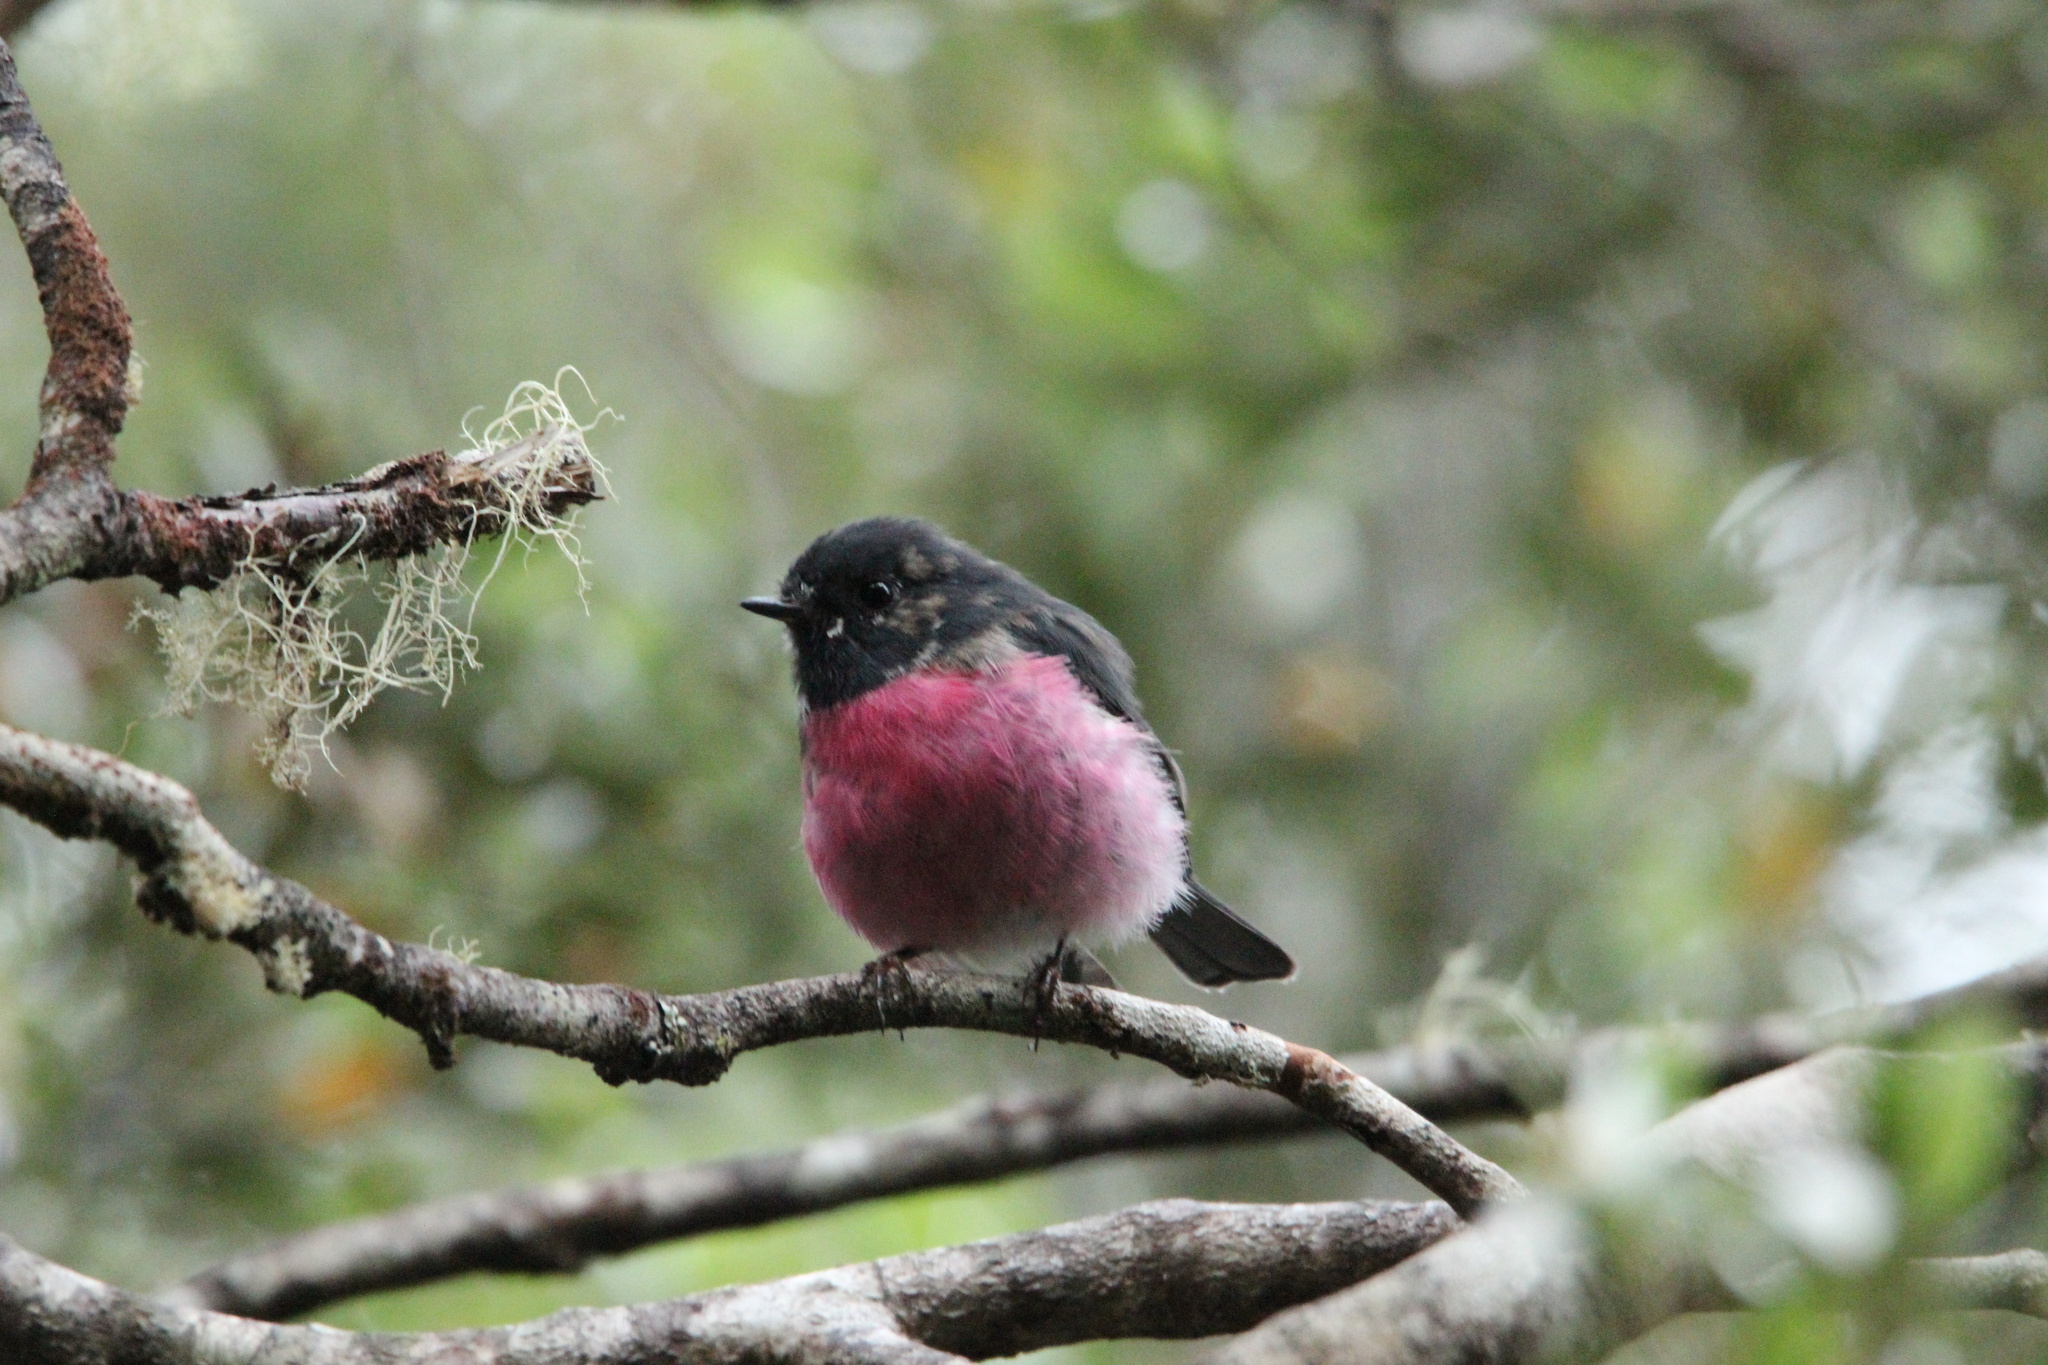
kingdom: Animalia
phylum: Chordata
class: Aves
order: Passeriformes
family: Petroicidae
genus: Petroica
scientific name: Petroica rodinogaster
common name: Pink robin
